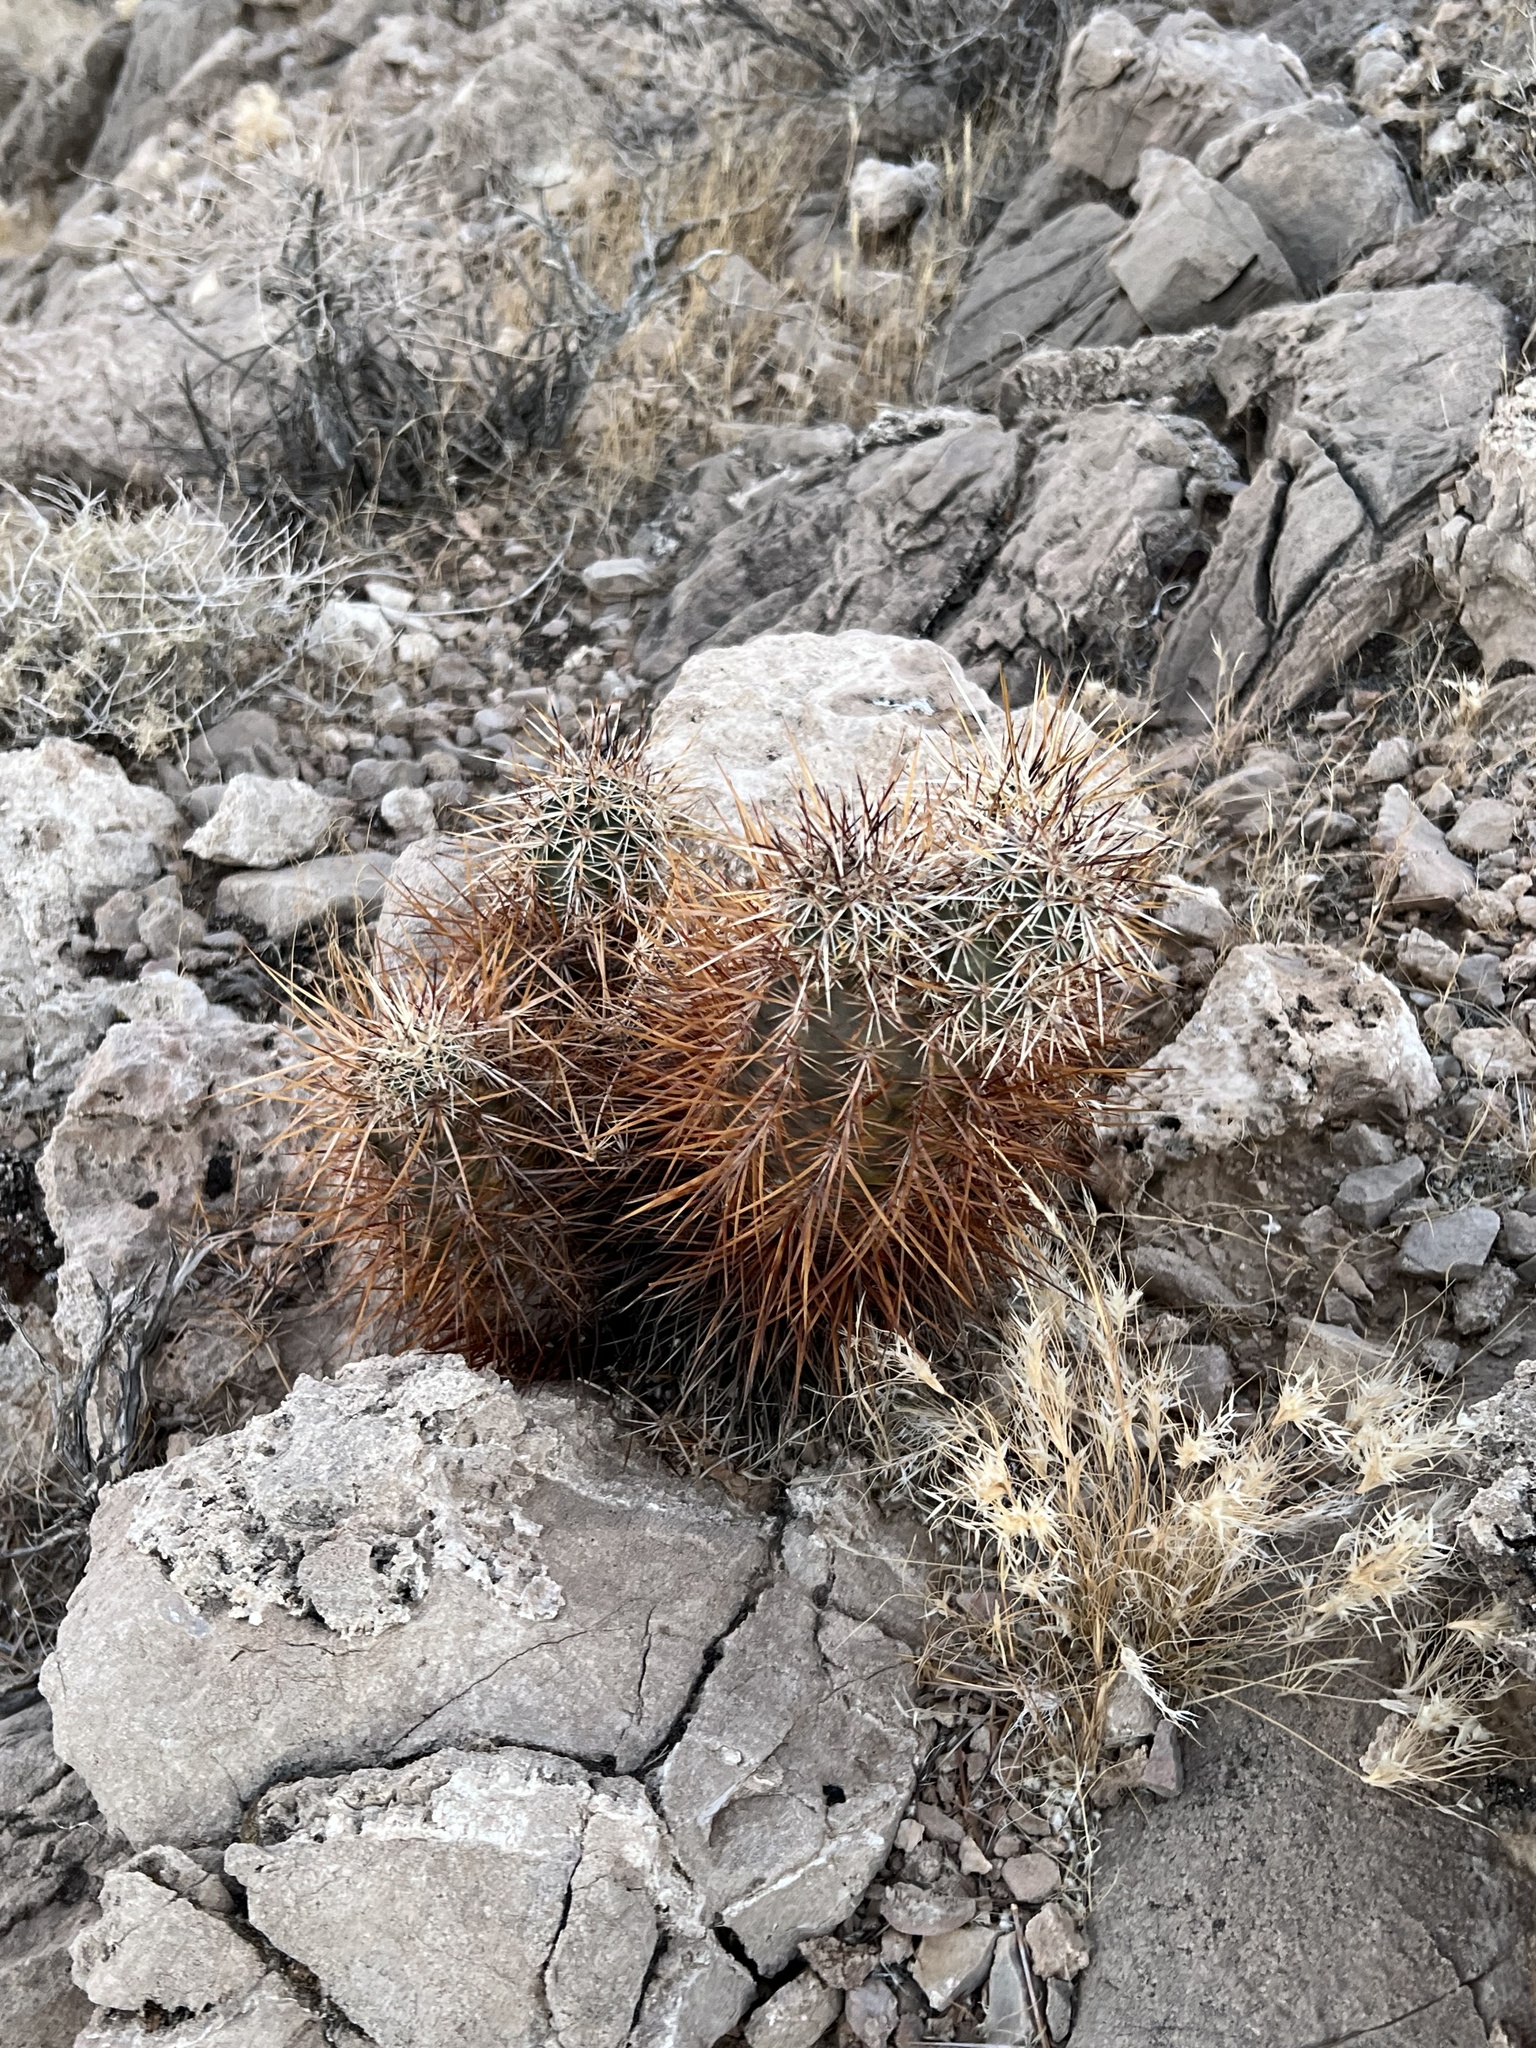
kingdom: Plantae
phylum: Tracheophyta
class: Magnoliopsida
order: Caryophyllales
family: Cactaceae
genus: Echinocereus
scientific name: Echinocereus engelmannii
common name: Engelmann's hedgehog cactus
